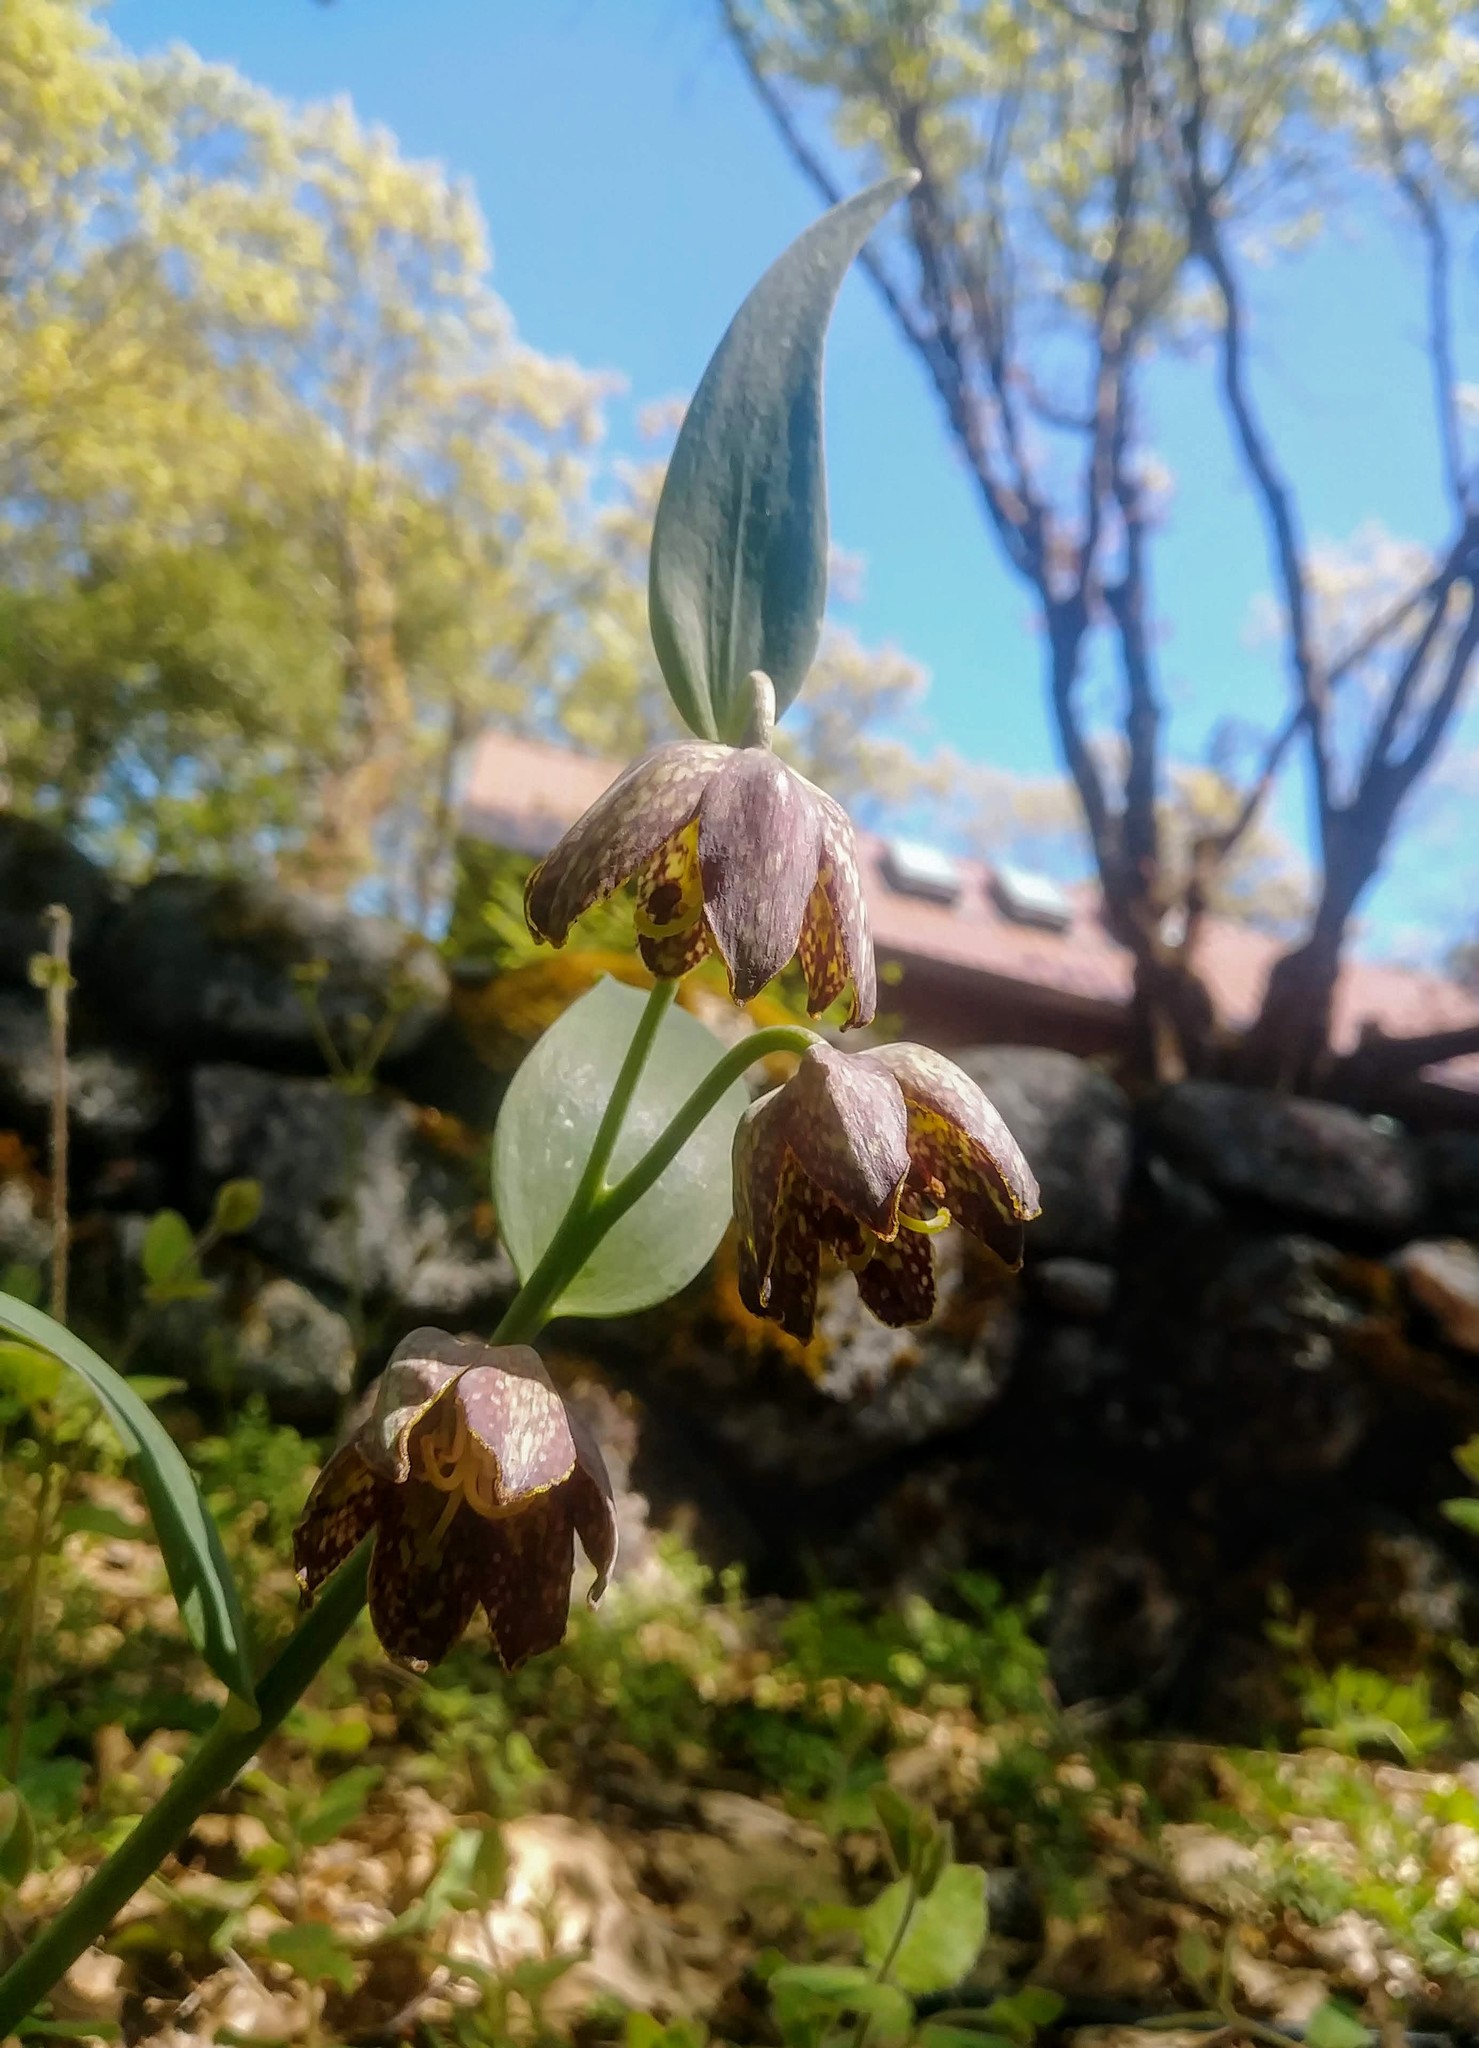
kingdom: Plantae
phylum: Tracheophyta
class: Liliopsida
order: Liliales
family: Liliaceae
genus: Fritillaria
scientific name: Fritillaria affinis
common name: Ojai fritillary
